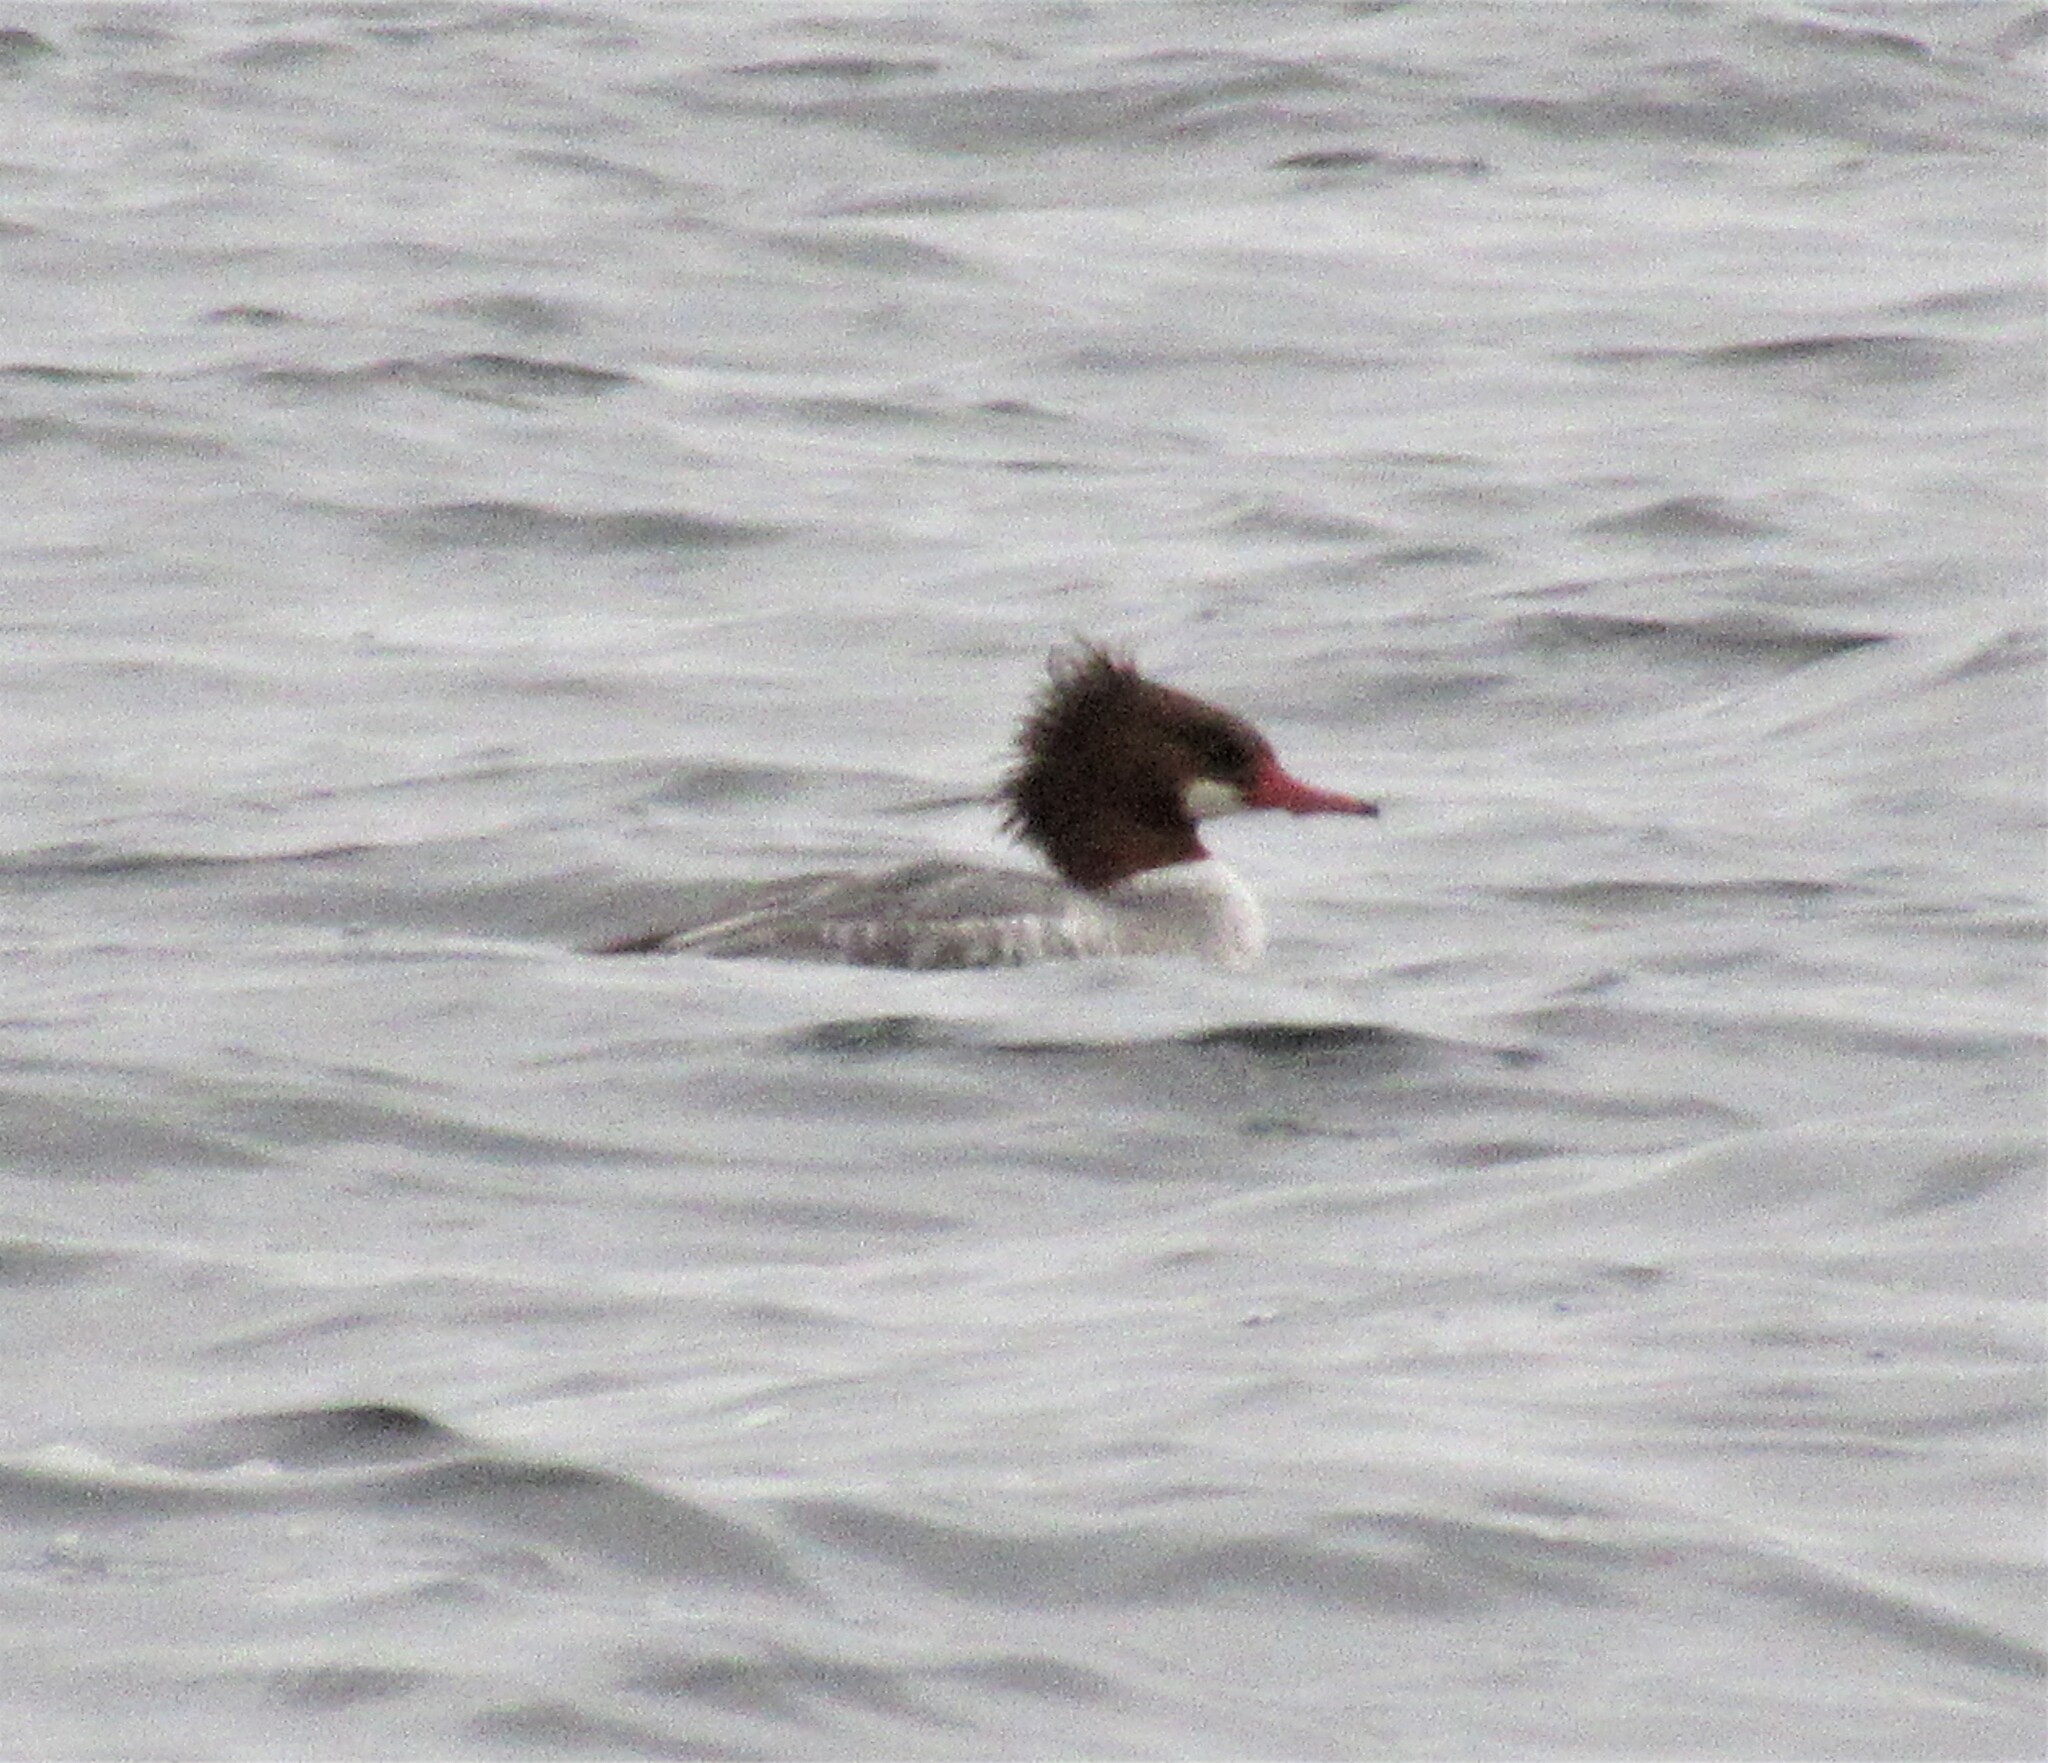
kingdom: Animalia
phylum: Chordata
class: Aves
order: Anseriformes
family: Anatidae
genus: Mergus
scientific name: Mergus merganser
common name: Common merganser
